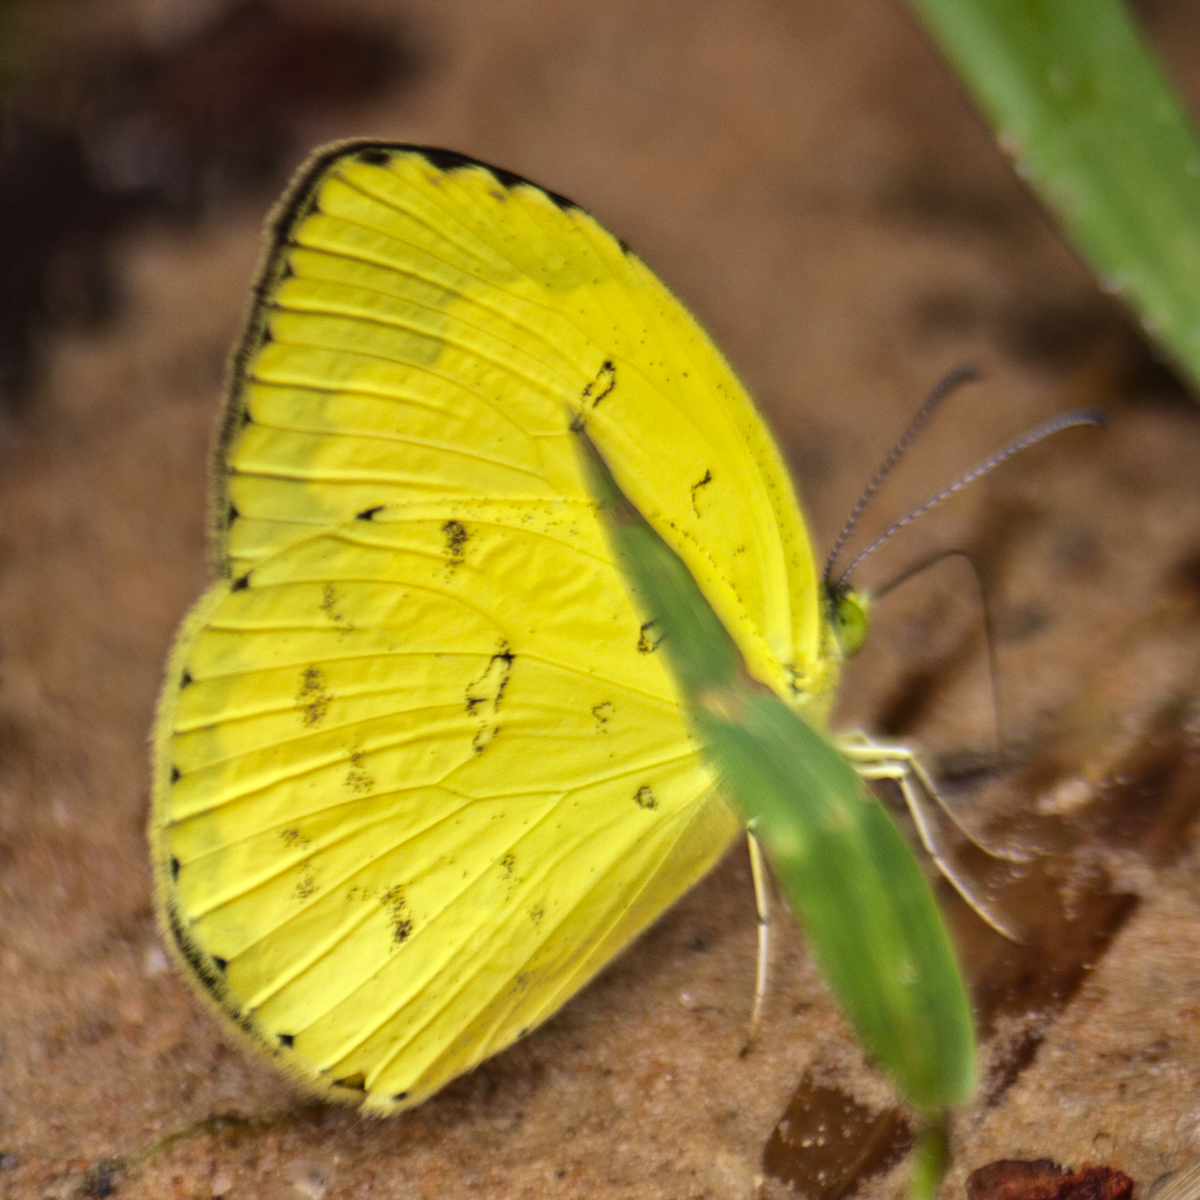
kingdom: Animalia
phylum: Arthropoda
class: Insecta
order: Lepidoptera
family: Pieridae
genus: Eurema
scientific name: Eurema hecabe
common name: Pale grass yellow
